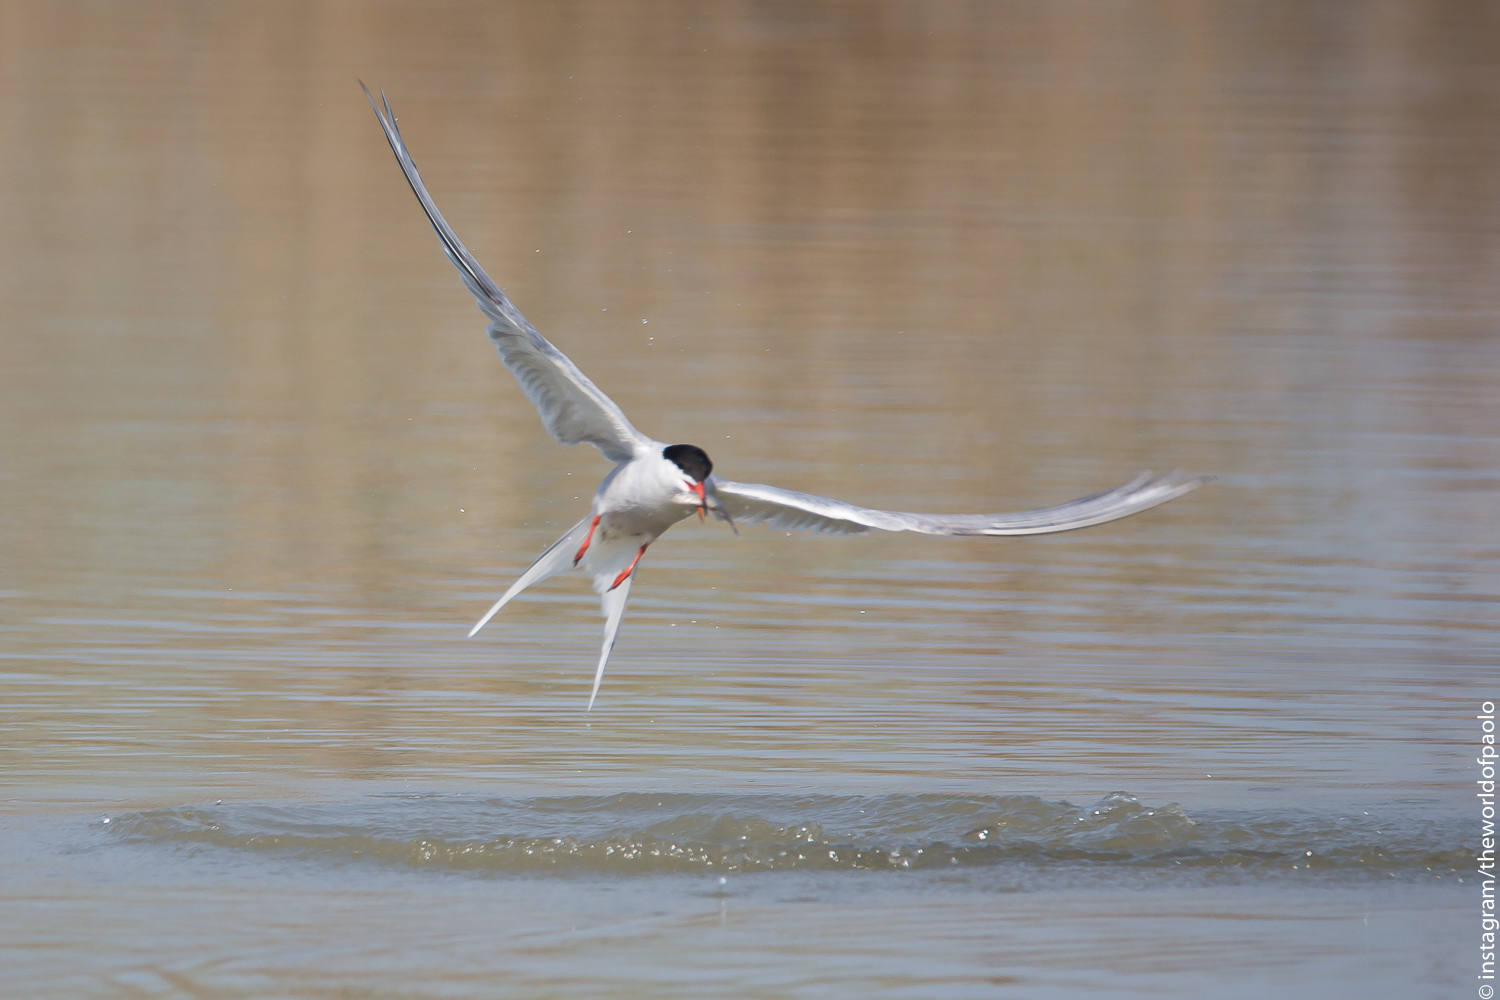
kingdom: Animalia
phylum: Chordata
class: Aves
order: Charadriiformes
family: Laridae
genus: Sterna
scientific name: Sterna hirundo
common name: Common tern
